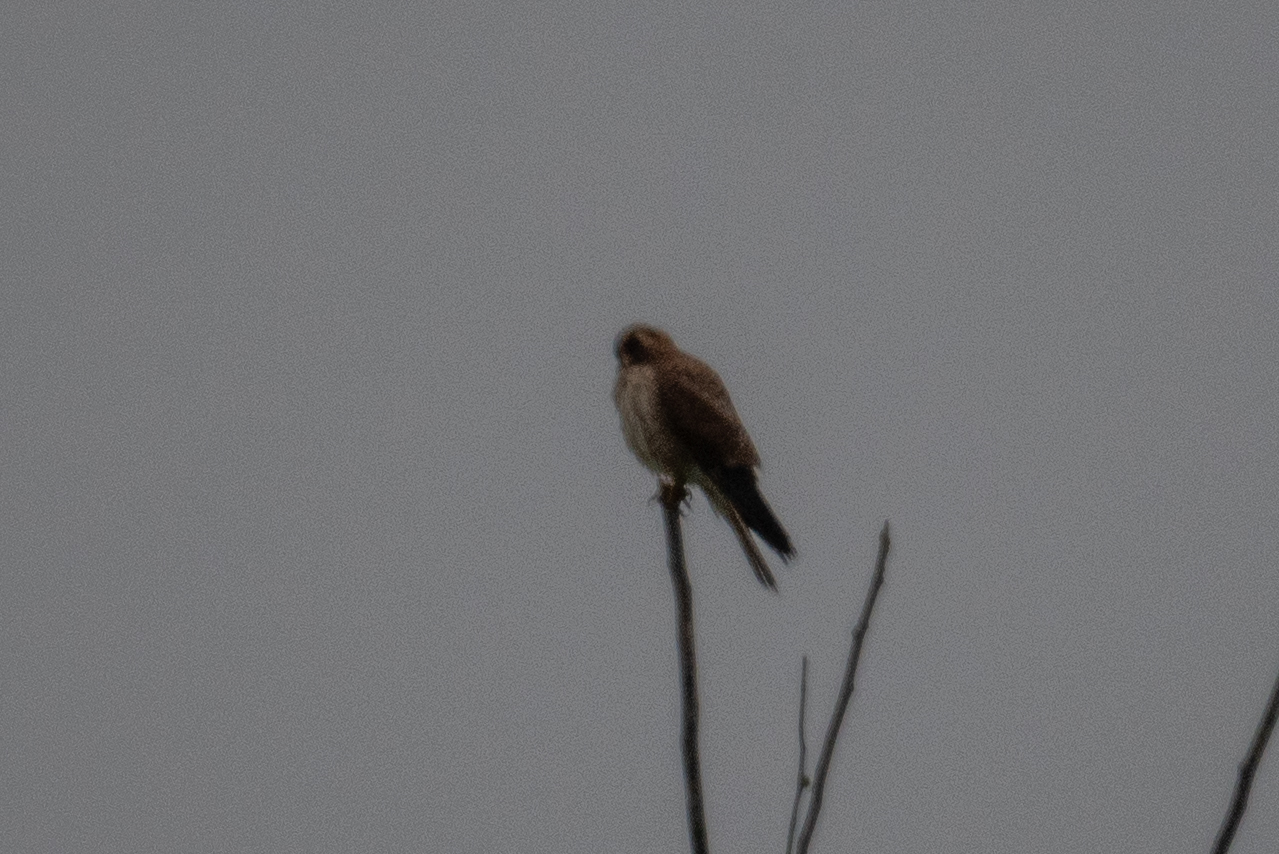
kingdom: Animalia
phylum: Chordata
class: Aves
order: Falconiformes
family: Falconidae
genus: Falco
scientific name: Falco sparverius
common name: American kestrel
